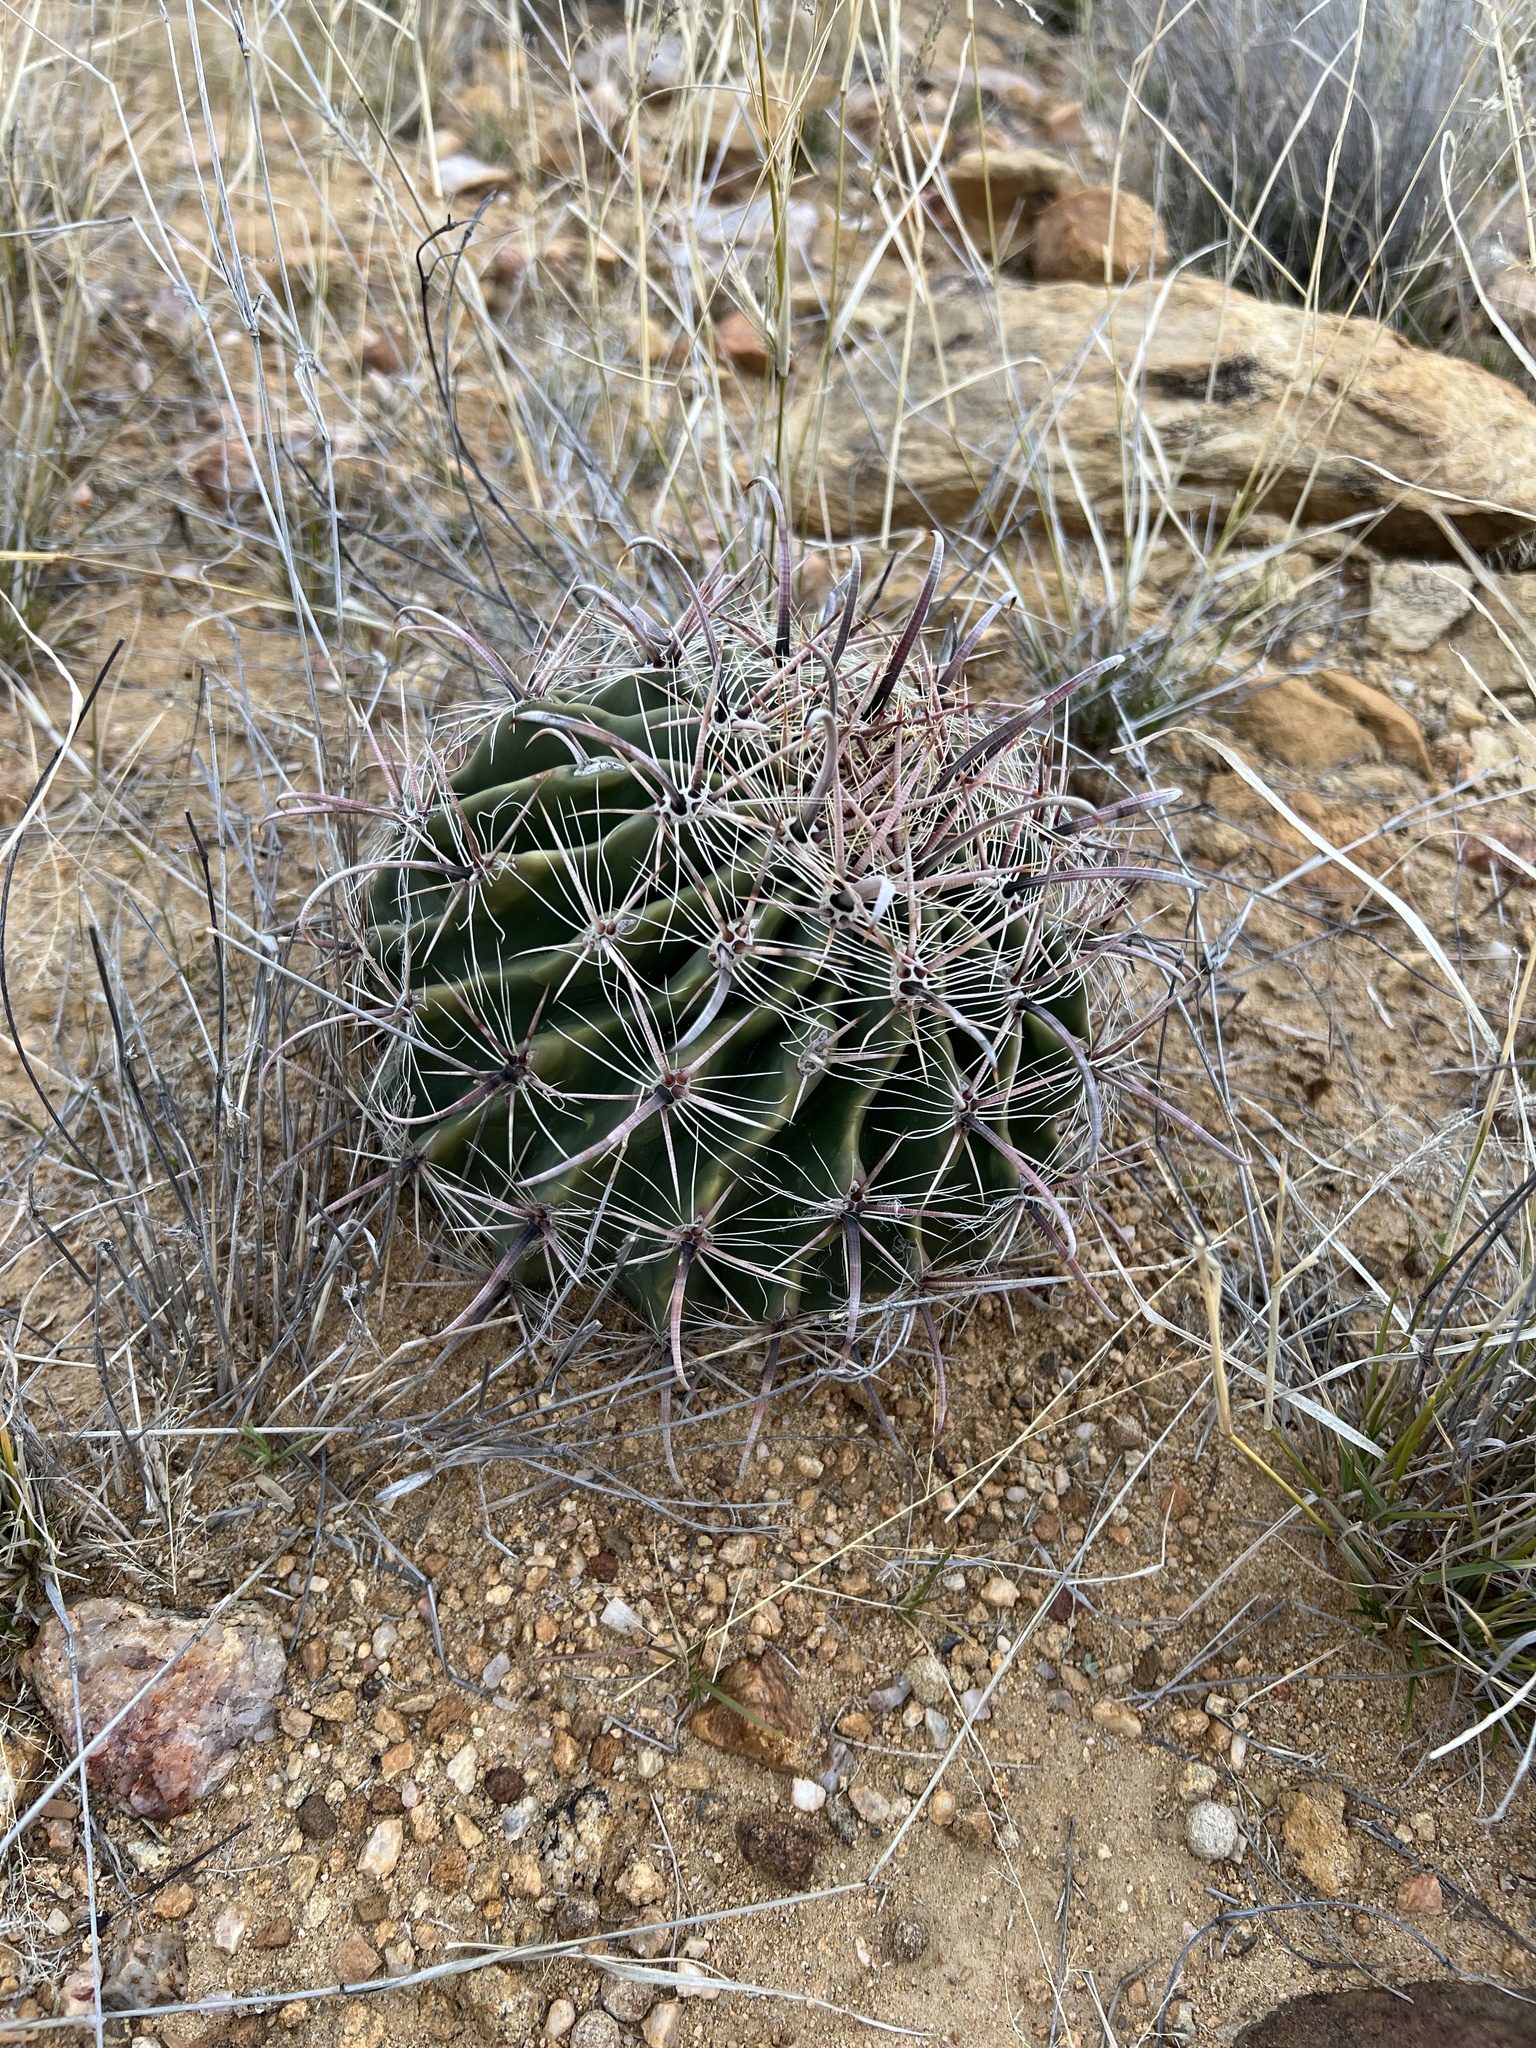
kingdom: Plantae
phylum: Tracheophyta
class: Magnoliopsida
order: Caryophyllales
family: Cactaceae
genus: Ferocactus
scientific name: Ferocactus wislizeni
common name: Candy barrel cactus
